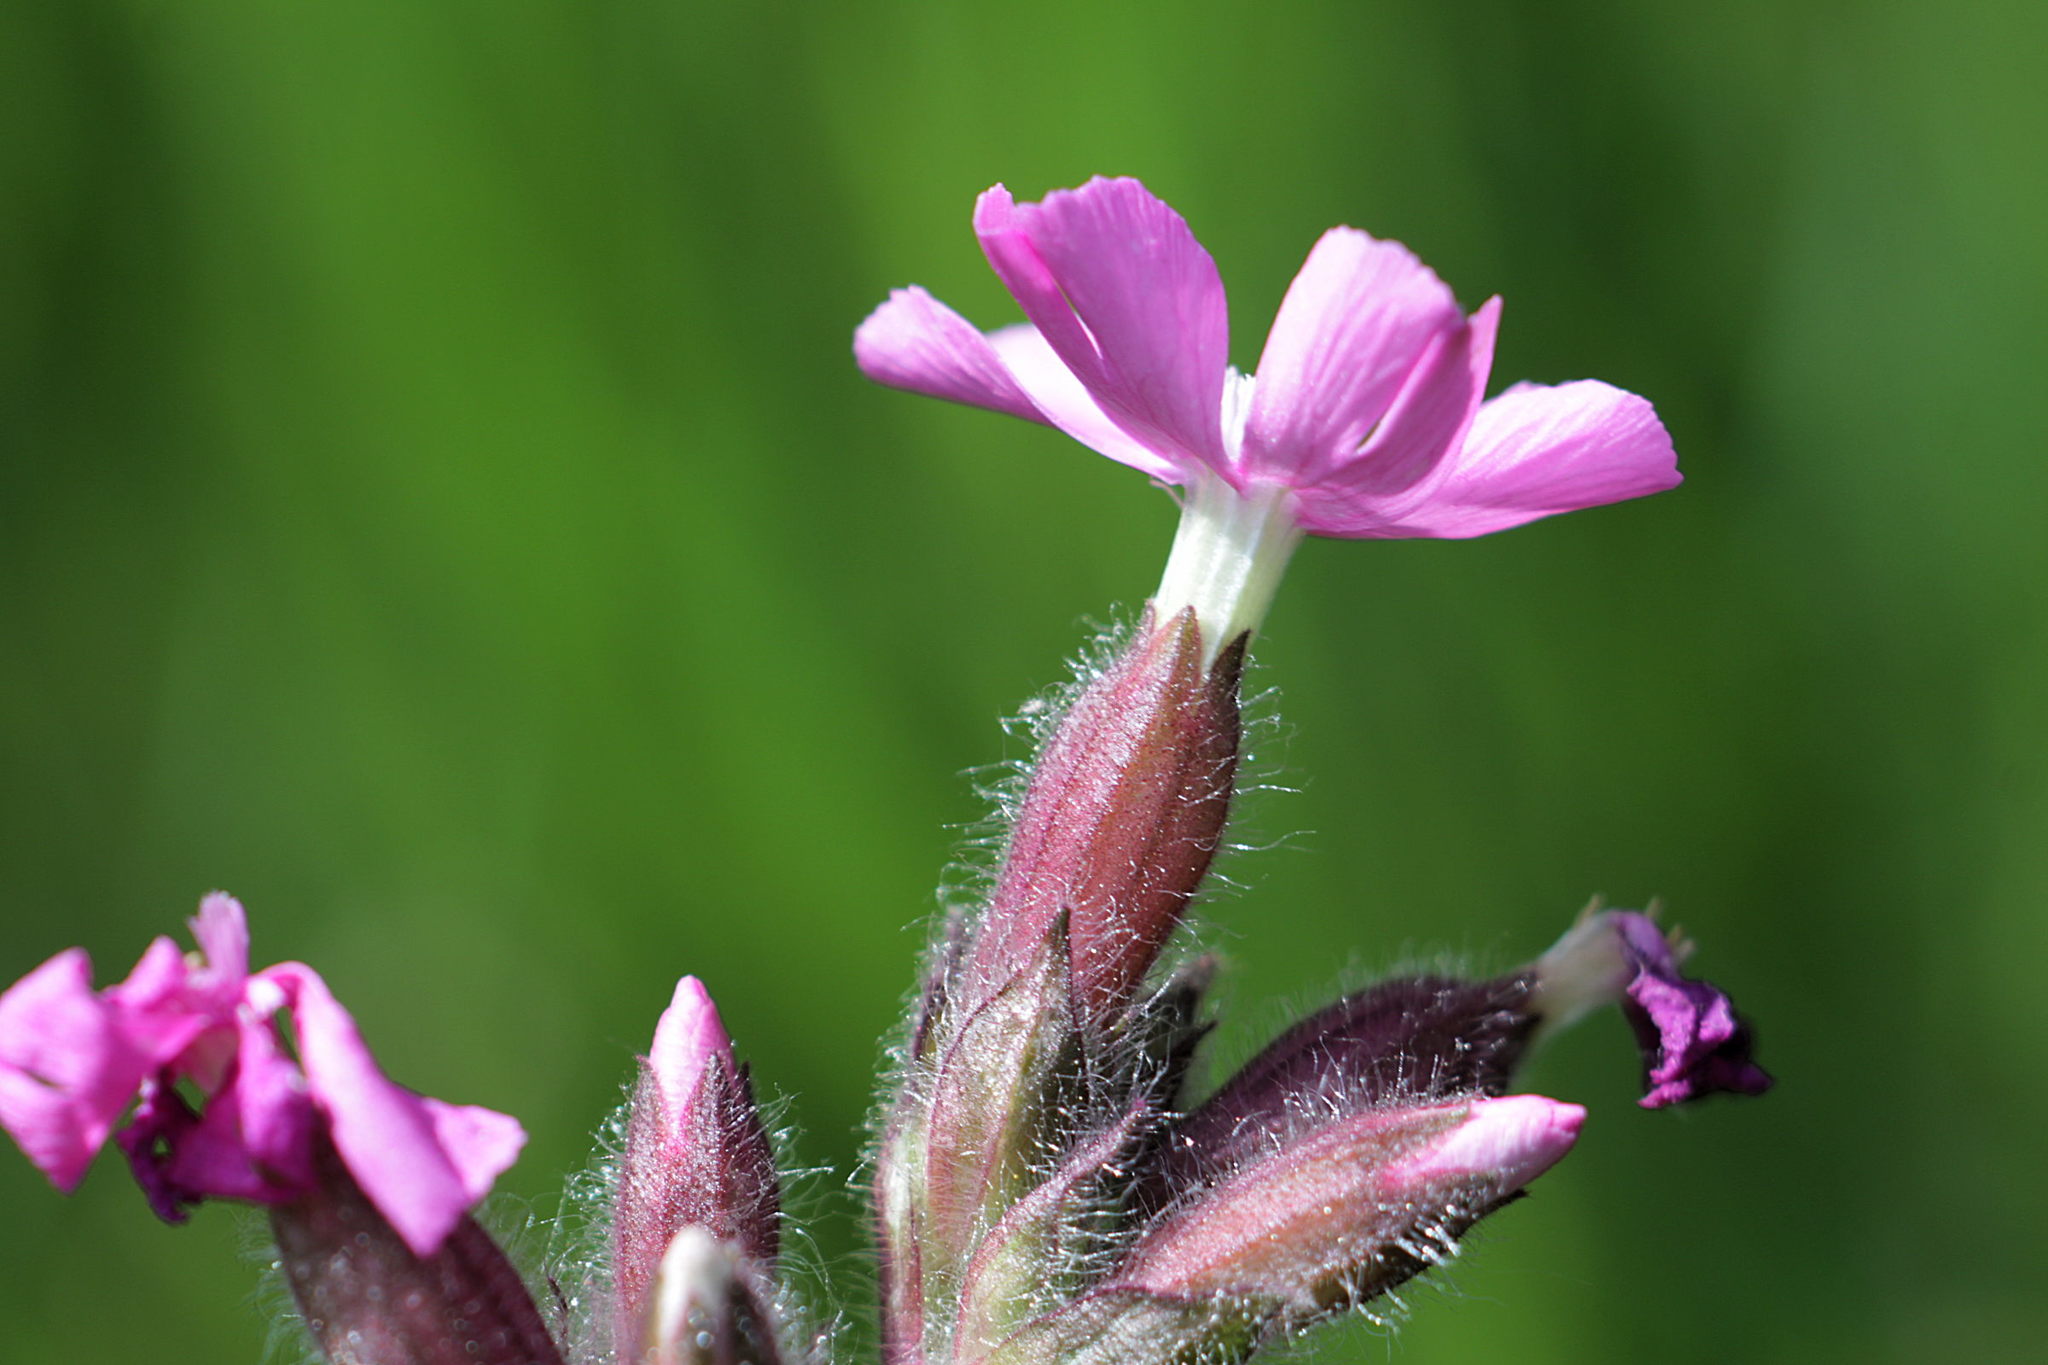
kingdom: Plantae
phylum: Tracheophyta
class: Magnoliopsida
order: Caryophyllales
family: Caryophyllaceae
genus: Silene
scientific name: Silene dioica
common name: Red campion
